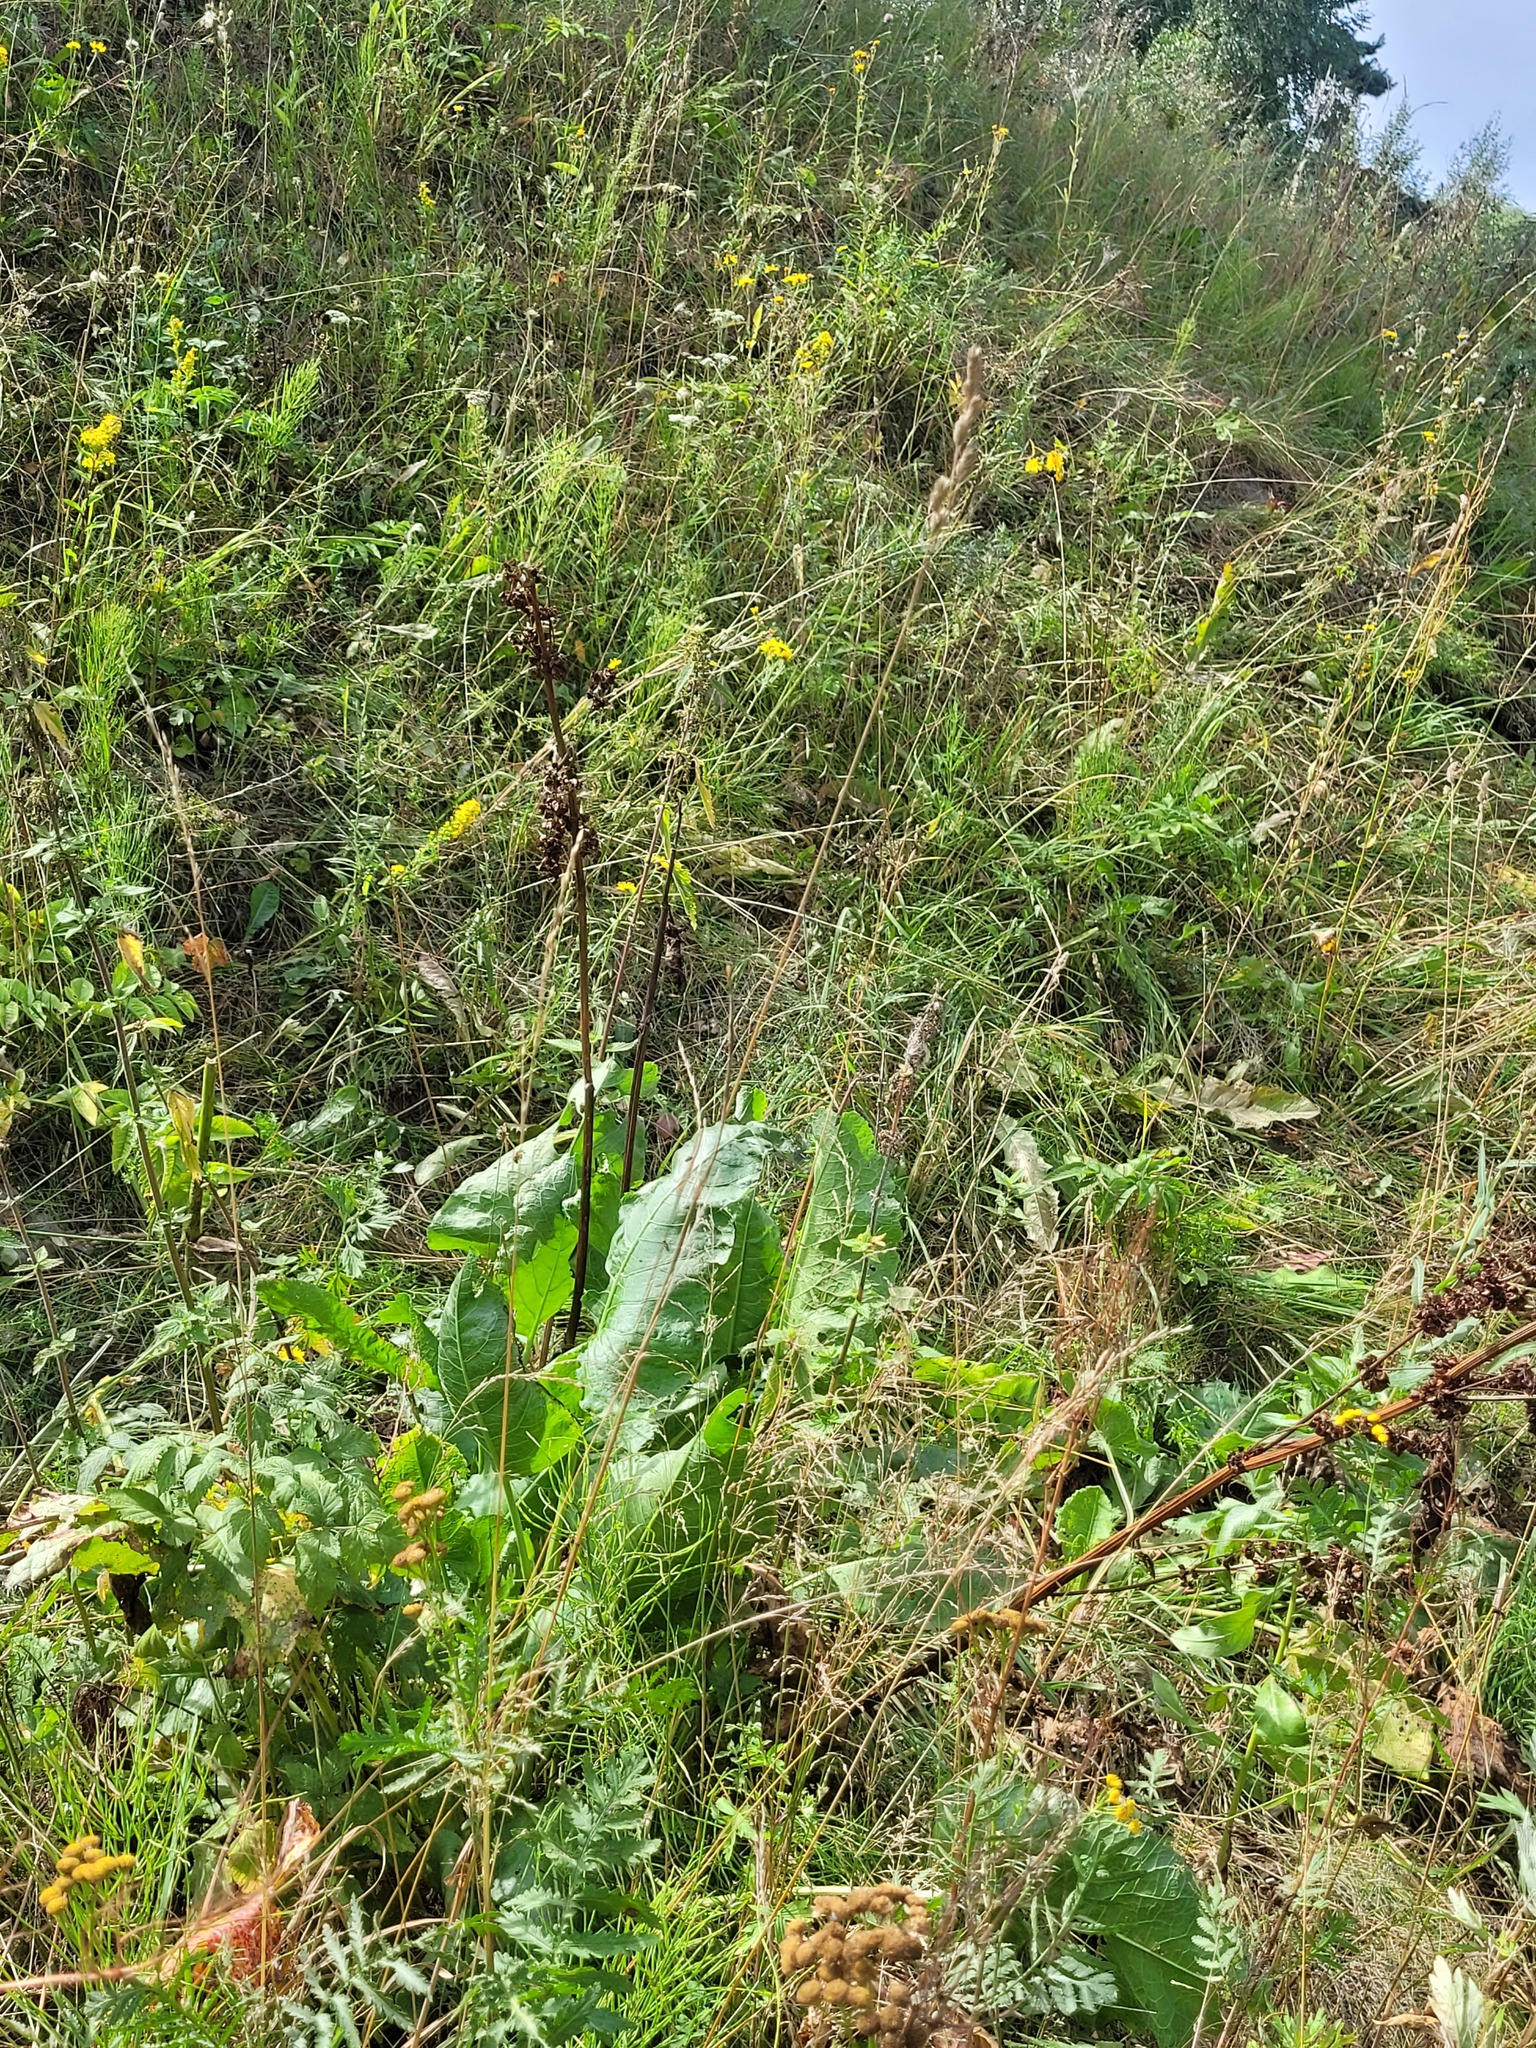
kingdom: Plantae
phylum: Tracheophyta
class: Magnoliopsida
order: Caryophyllales
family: Polygonaceae
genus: Rumex
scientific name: Rumex confertus
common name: Russian dock
